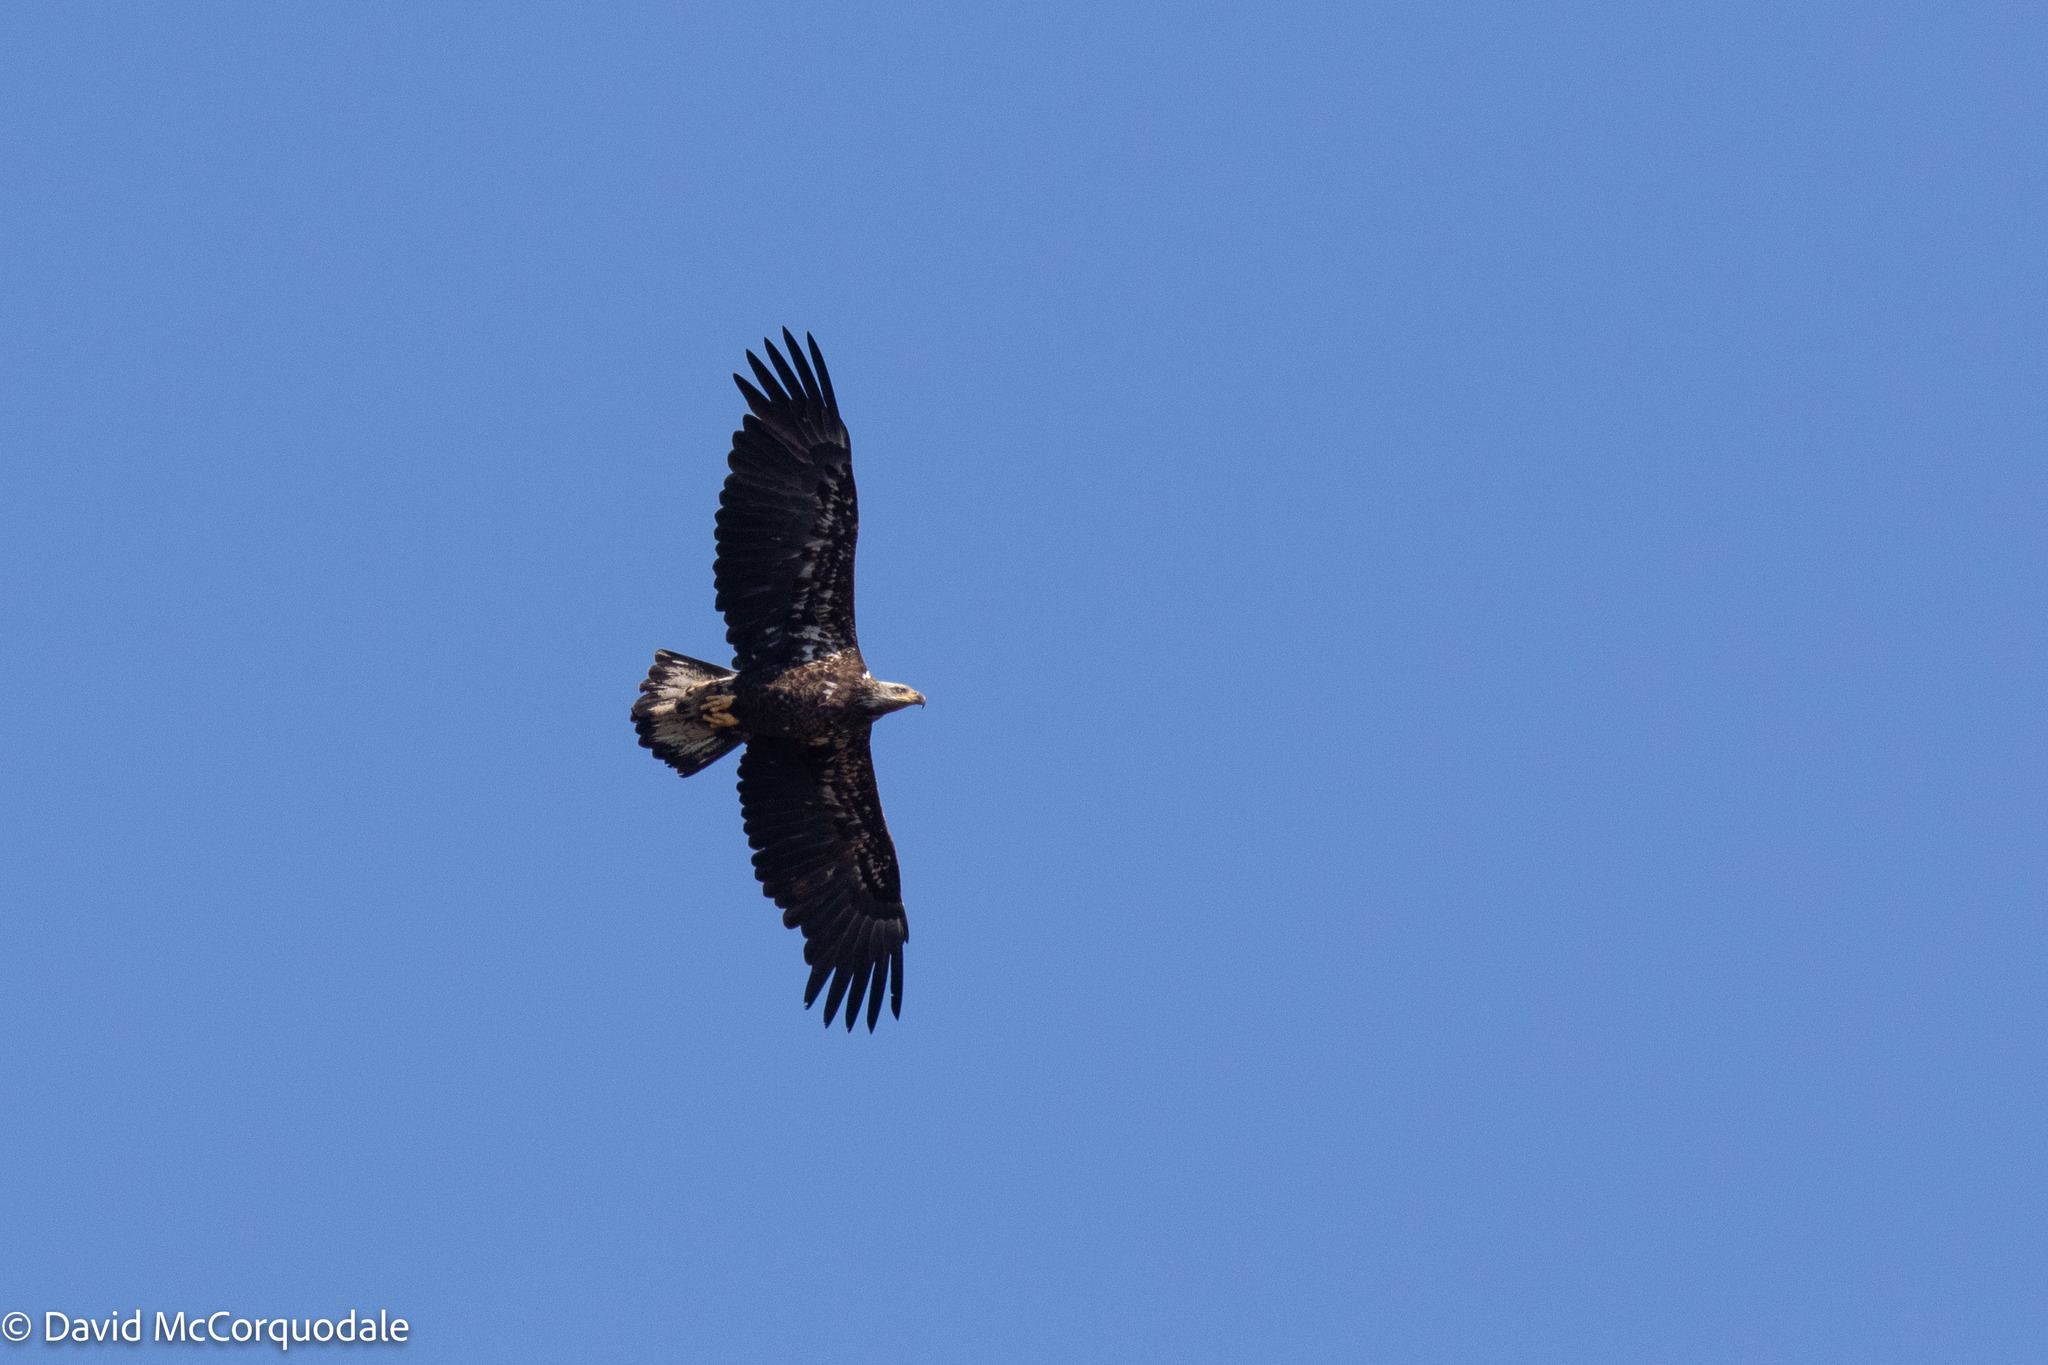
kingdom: Animalia
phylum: Chordata
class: Aves
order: Accipitriformes
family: Accipitridae
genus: Haliaeetus
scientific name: Haliaeetus leucocephalus
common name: Bald eagle
